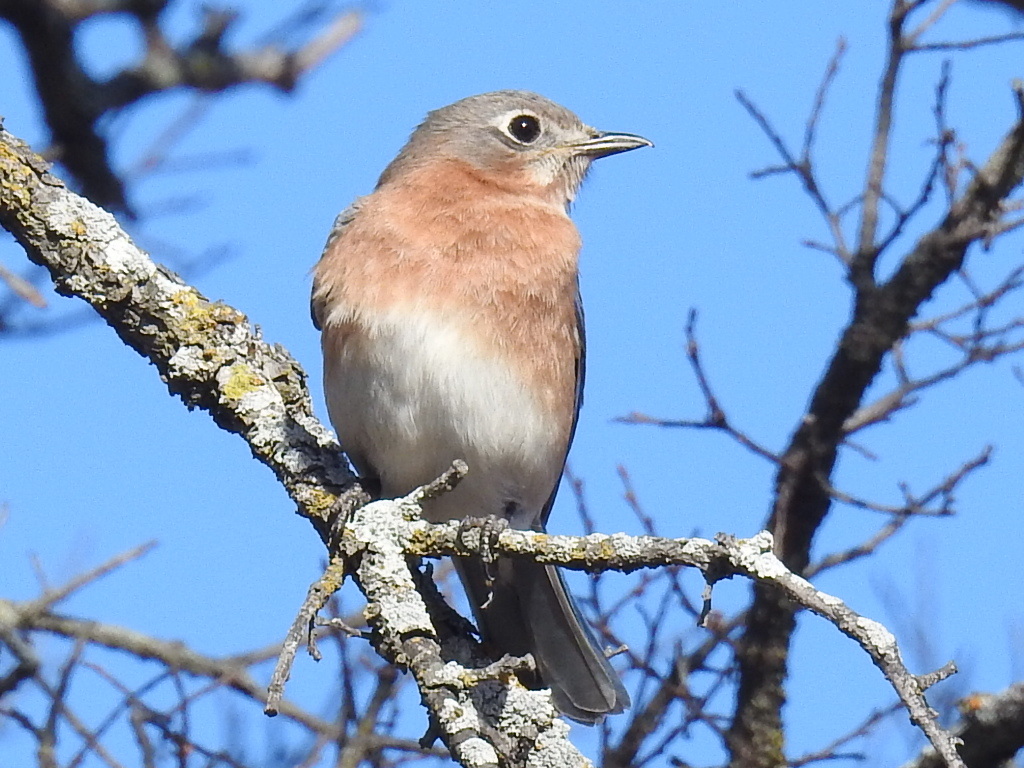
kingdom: Animalia
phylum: Chordata
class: Aves
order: Passeriformes
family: Turdidae
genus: Sialia
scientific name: Sialia sialis
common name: Eastern bluebird
